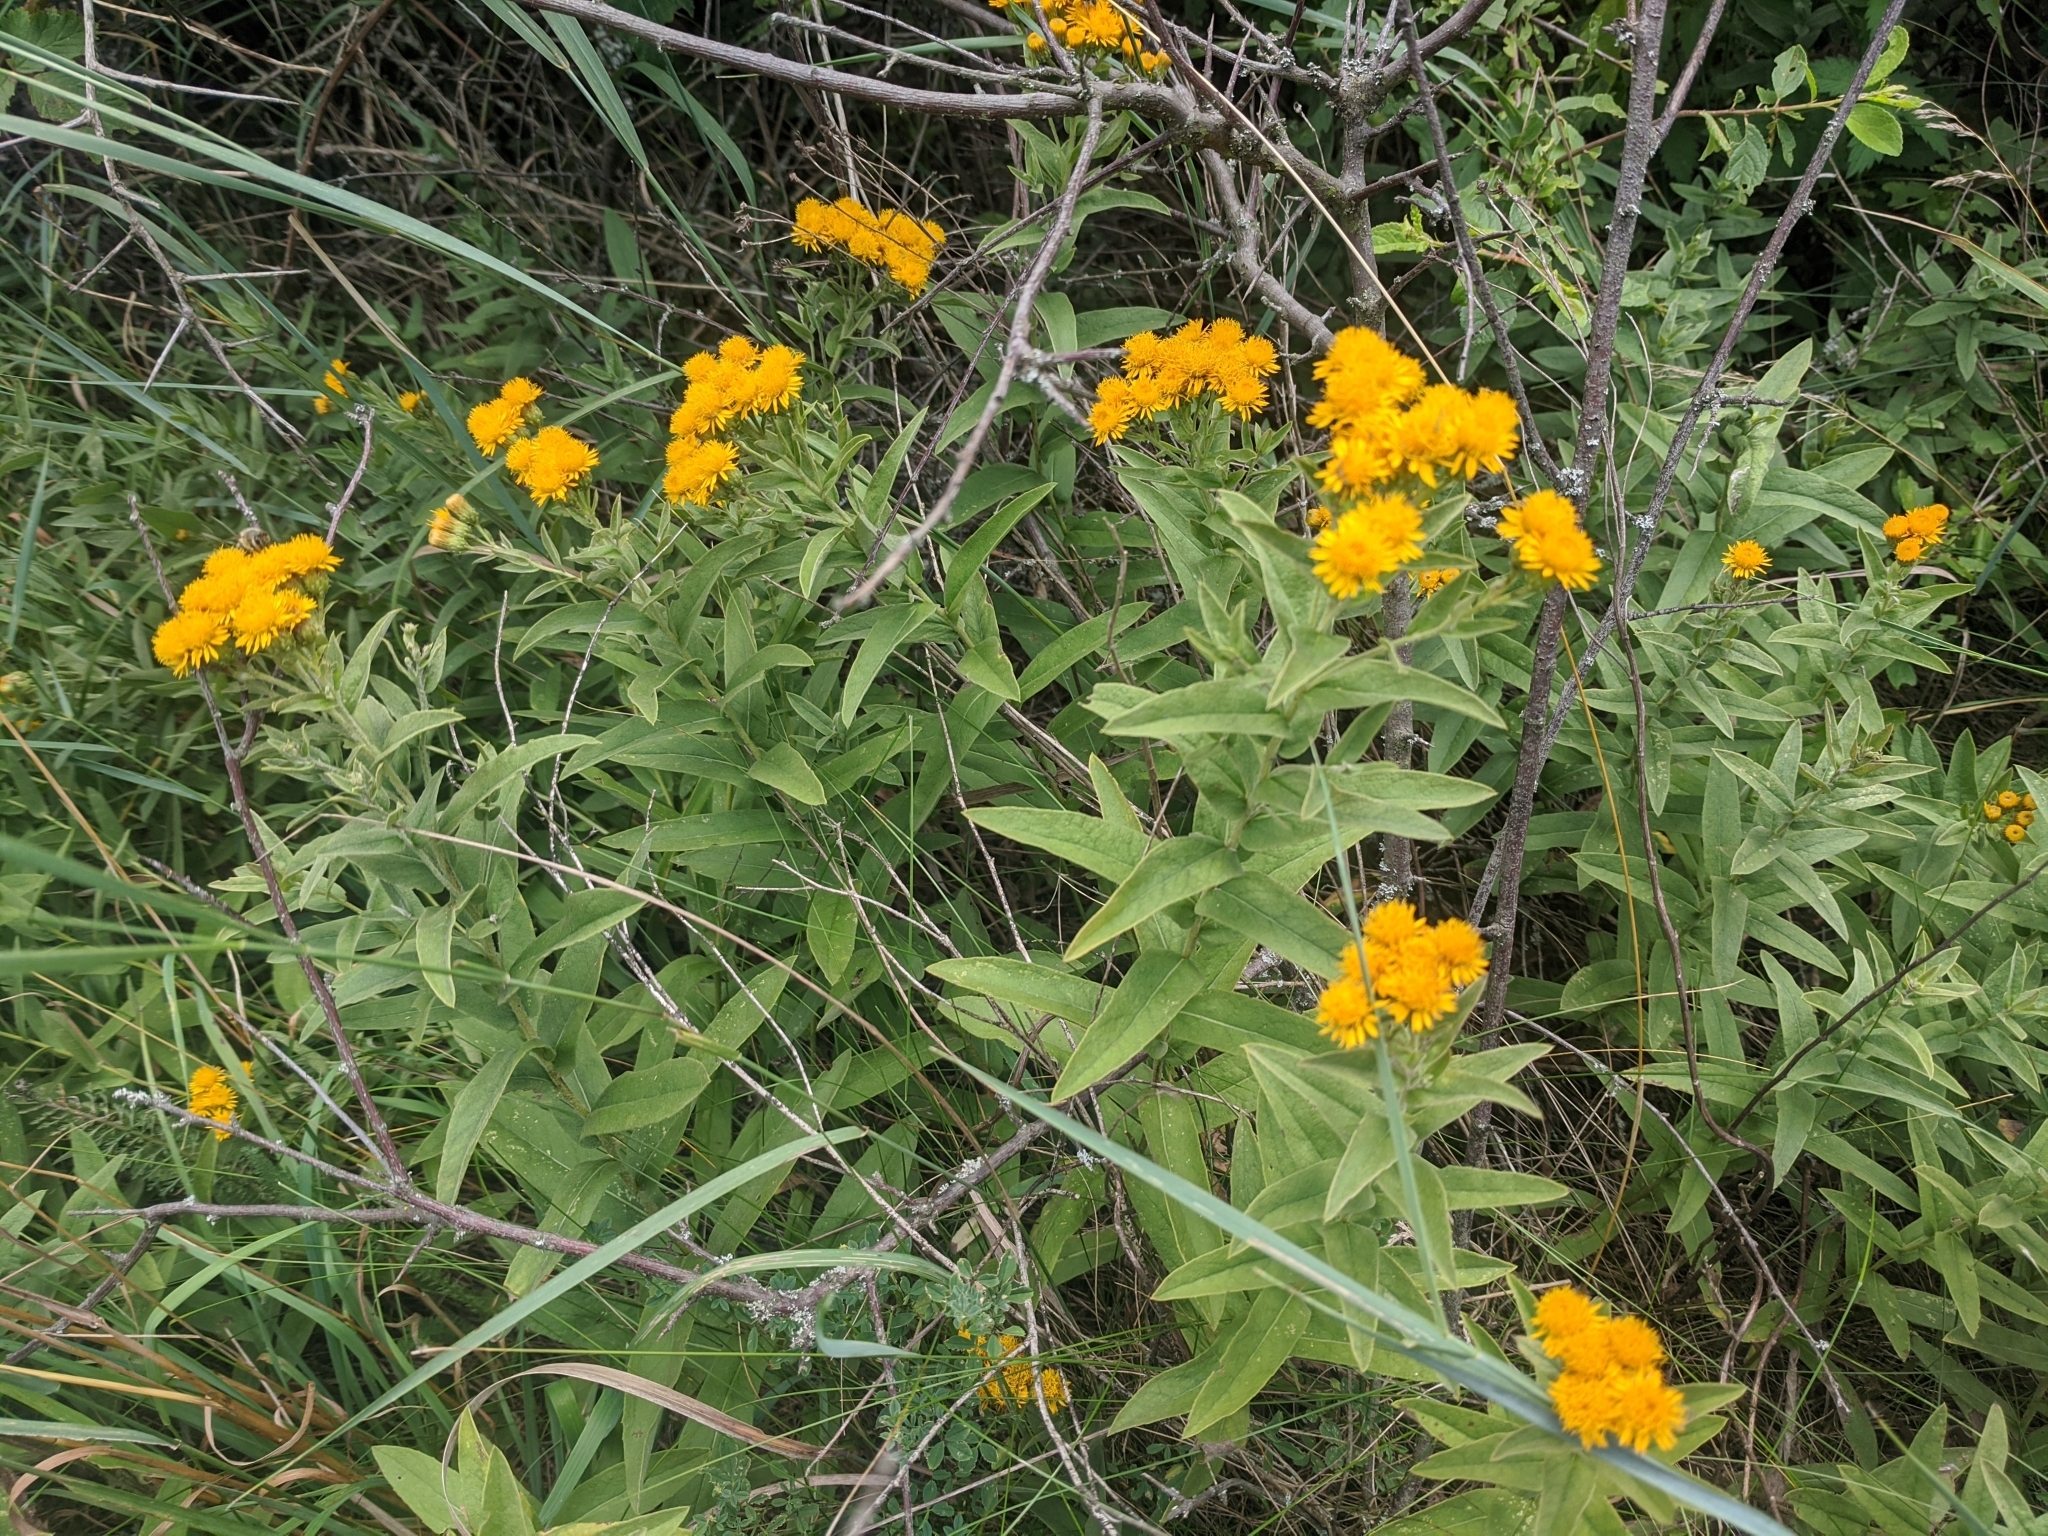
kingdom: Plantae
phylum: Tracheophyta
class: Magnoliopsida
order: Asterales
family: Asteraceae
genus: Pentanema
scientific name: Pentanema germanicum
